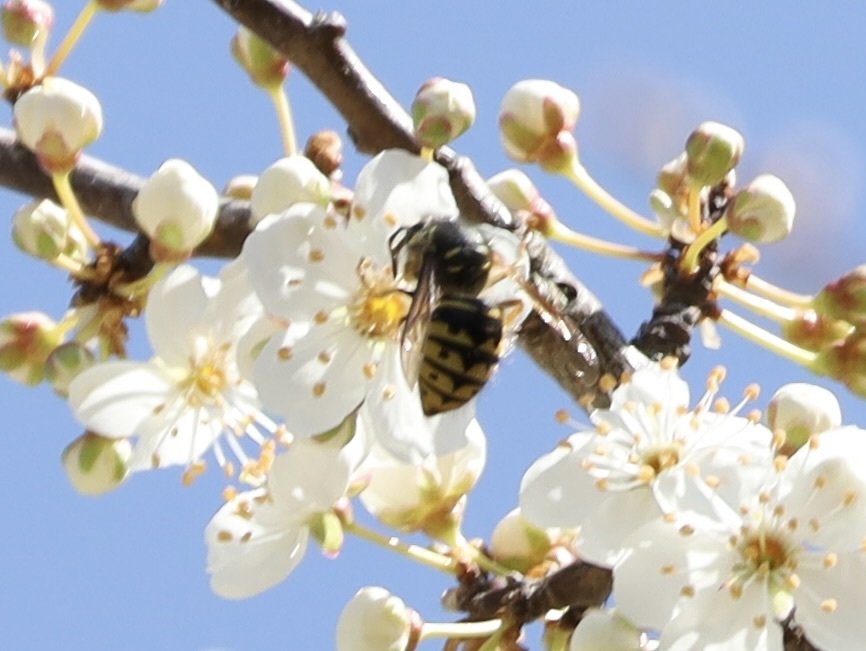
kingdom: Animalia
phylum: Arthropoda
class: Insecta
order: Hymenoptera
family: Vespidae
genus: Dolichovespula
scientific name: Dolichovespula arenaria
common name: Aerial yellowjacket
